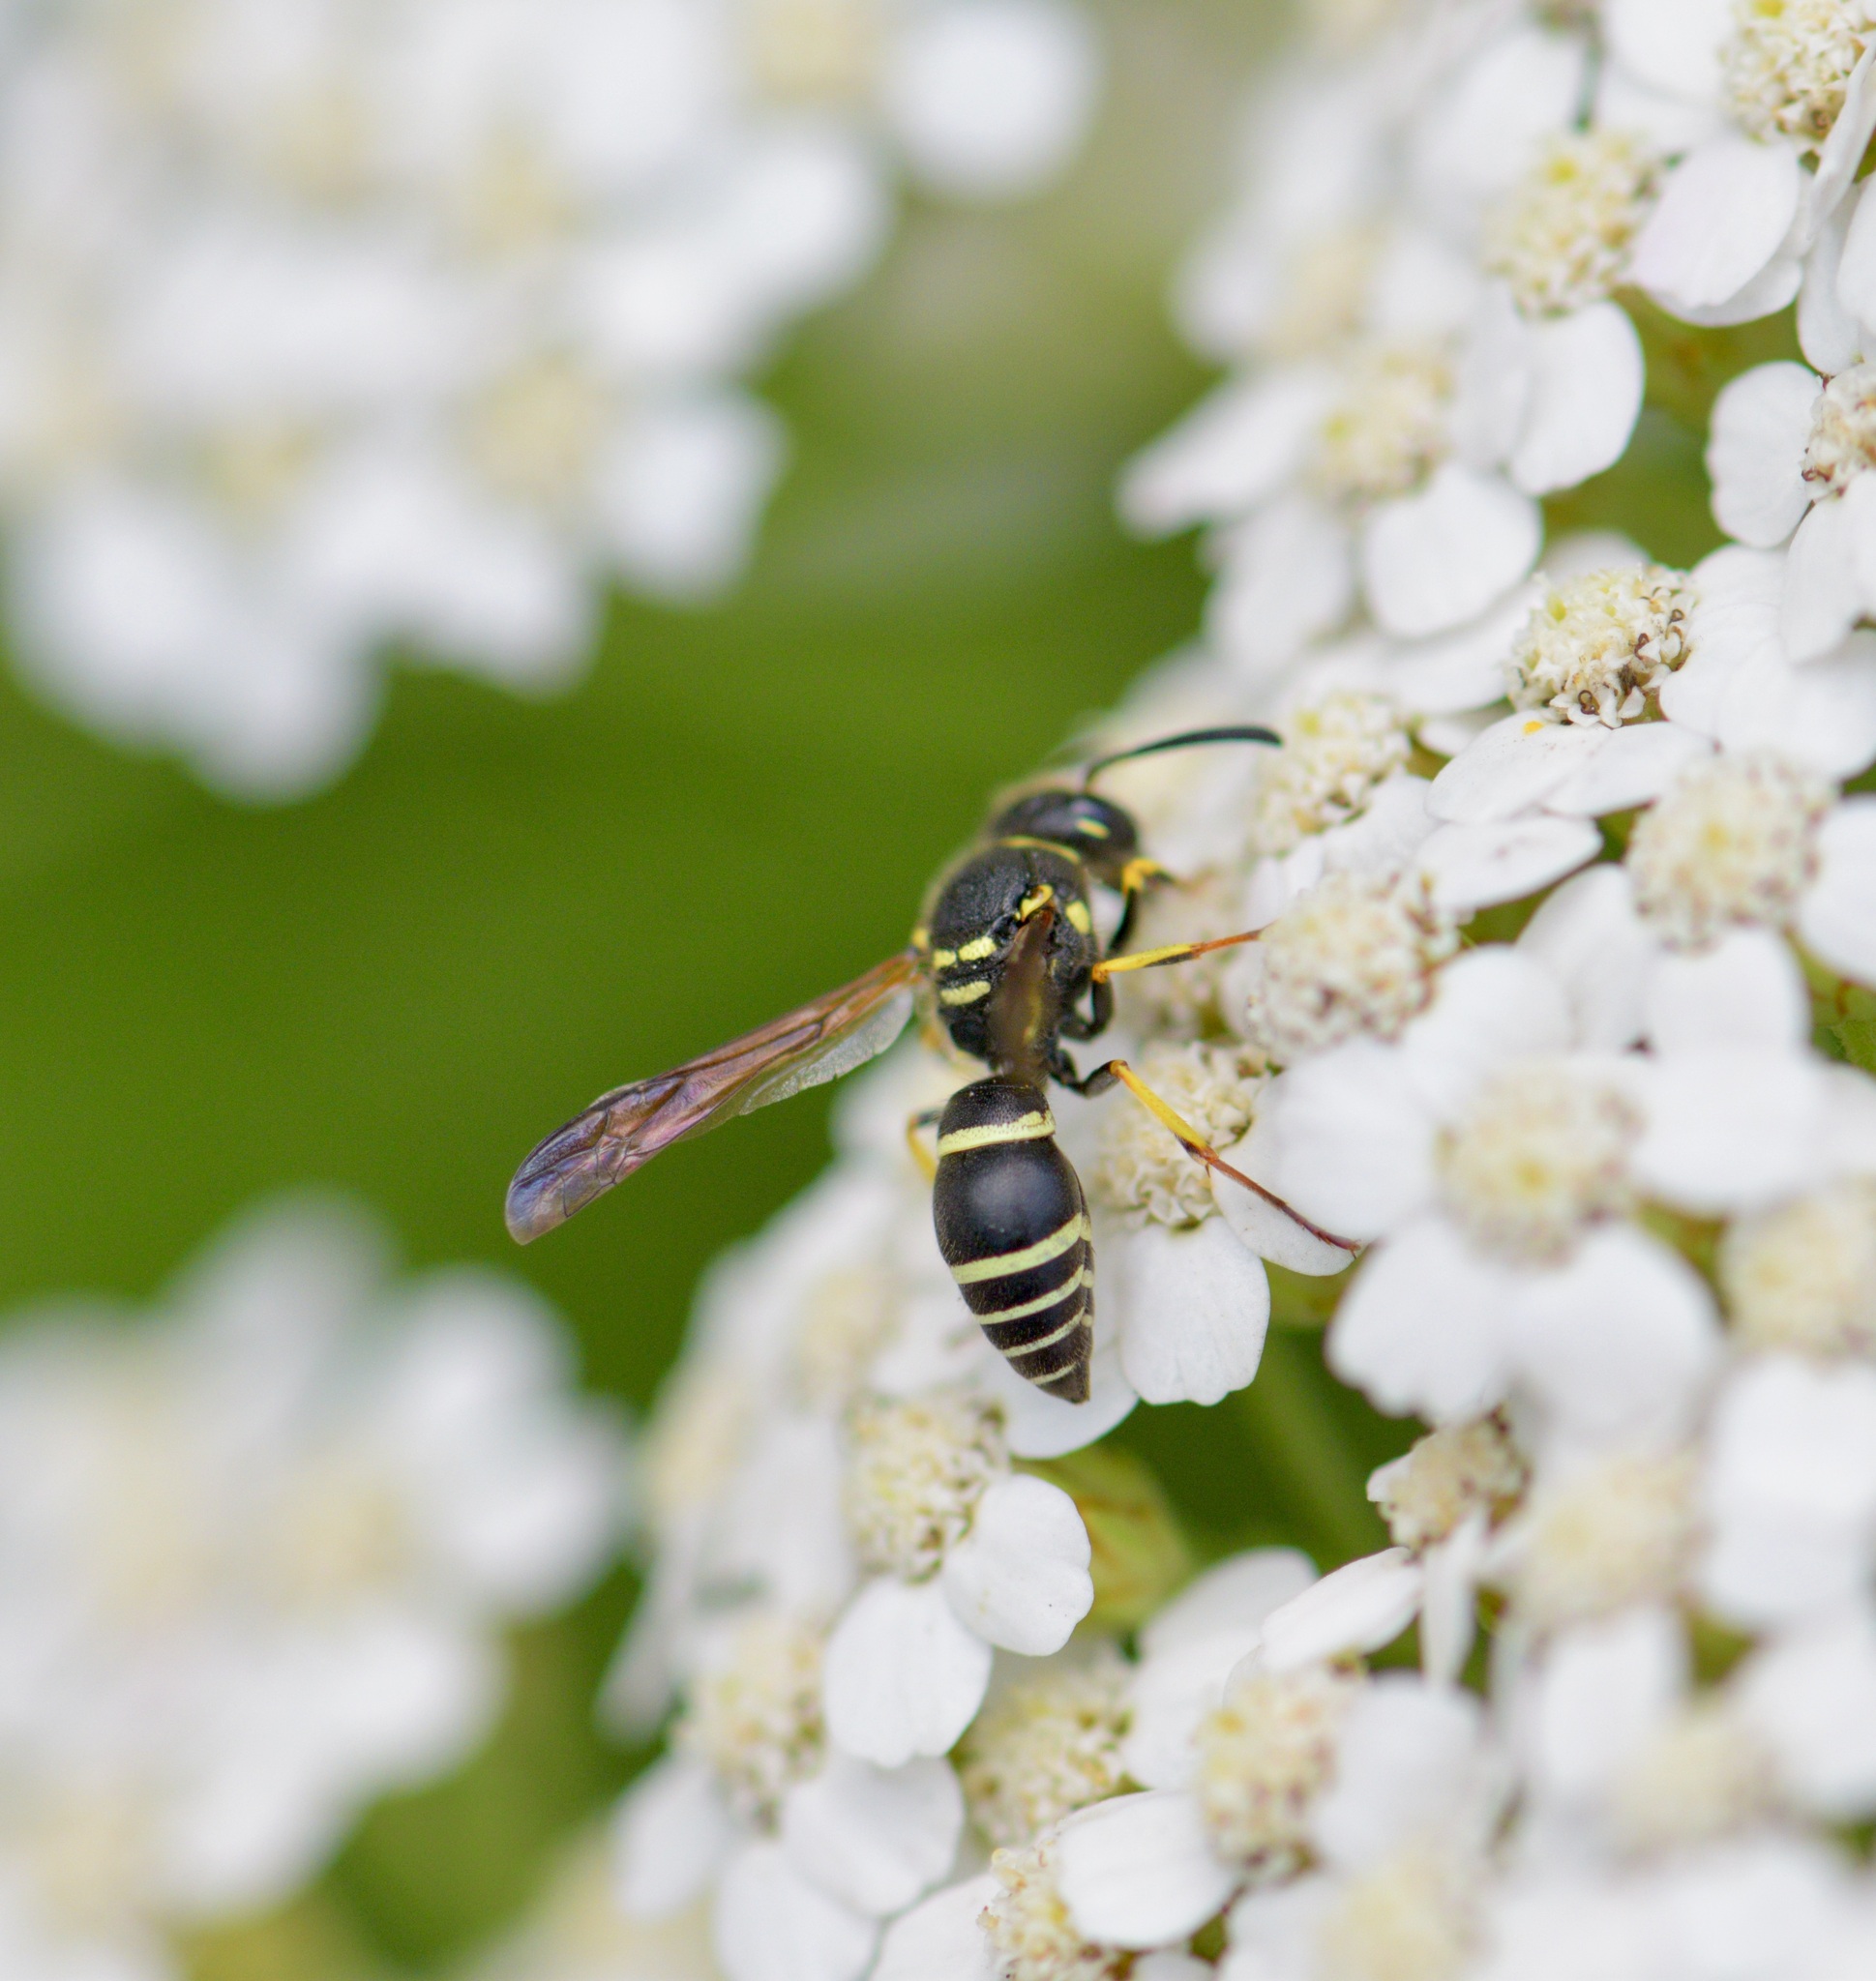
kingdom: Animalia
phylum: Arthropoda
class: Insecta
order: Hymenoptera
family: Vespidae
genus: Ancistrocerus
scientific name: Ancistrocerus catskill
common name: Vespid wasp
